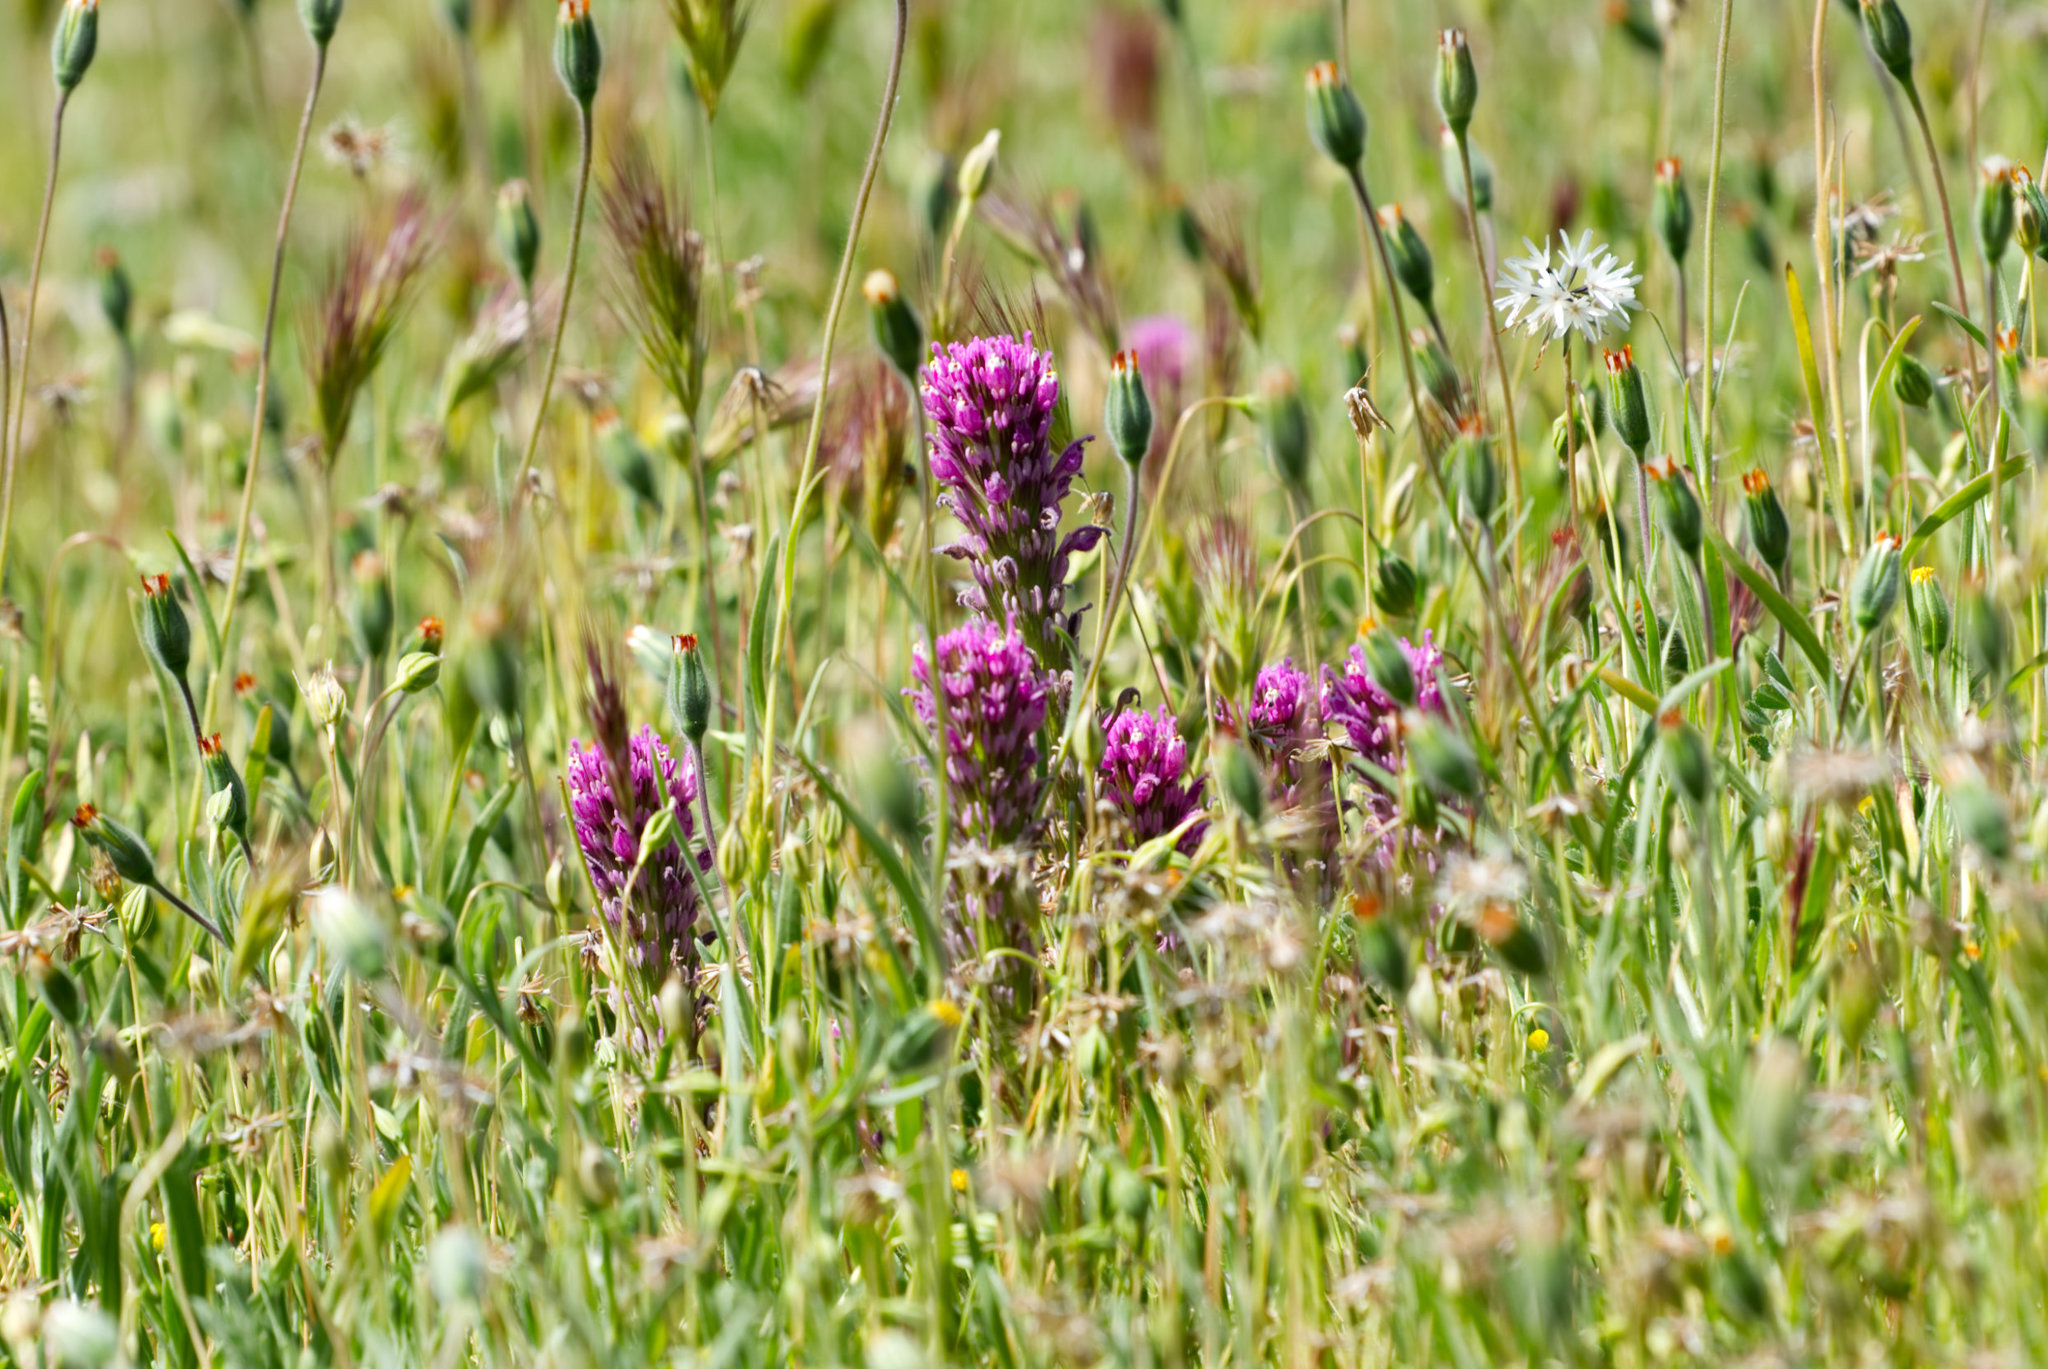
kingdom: Plantae
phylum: Tracheophyta
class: Magnoliopsida
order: Lamiales
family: Orobanchaceae
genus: Castilleja
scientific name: Castilleja exserta
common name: Purple owl-clover
